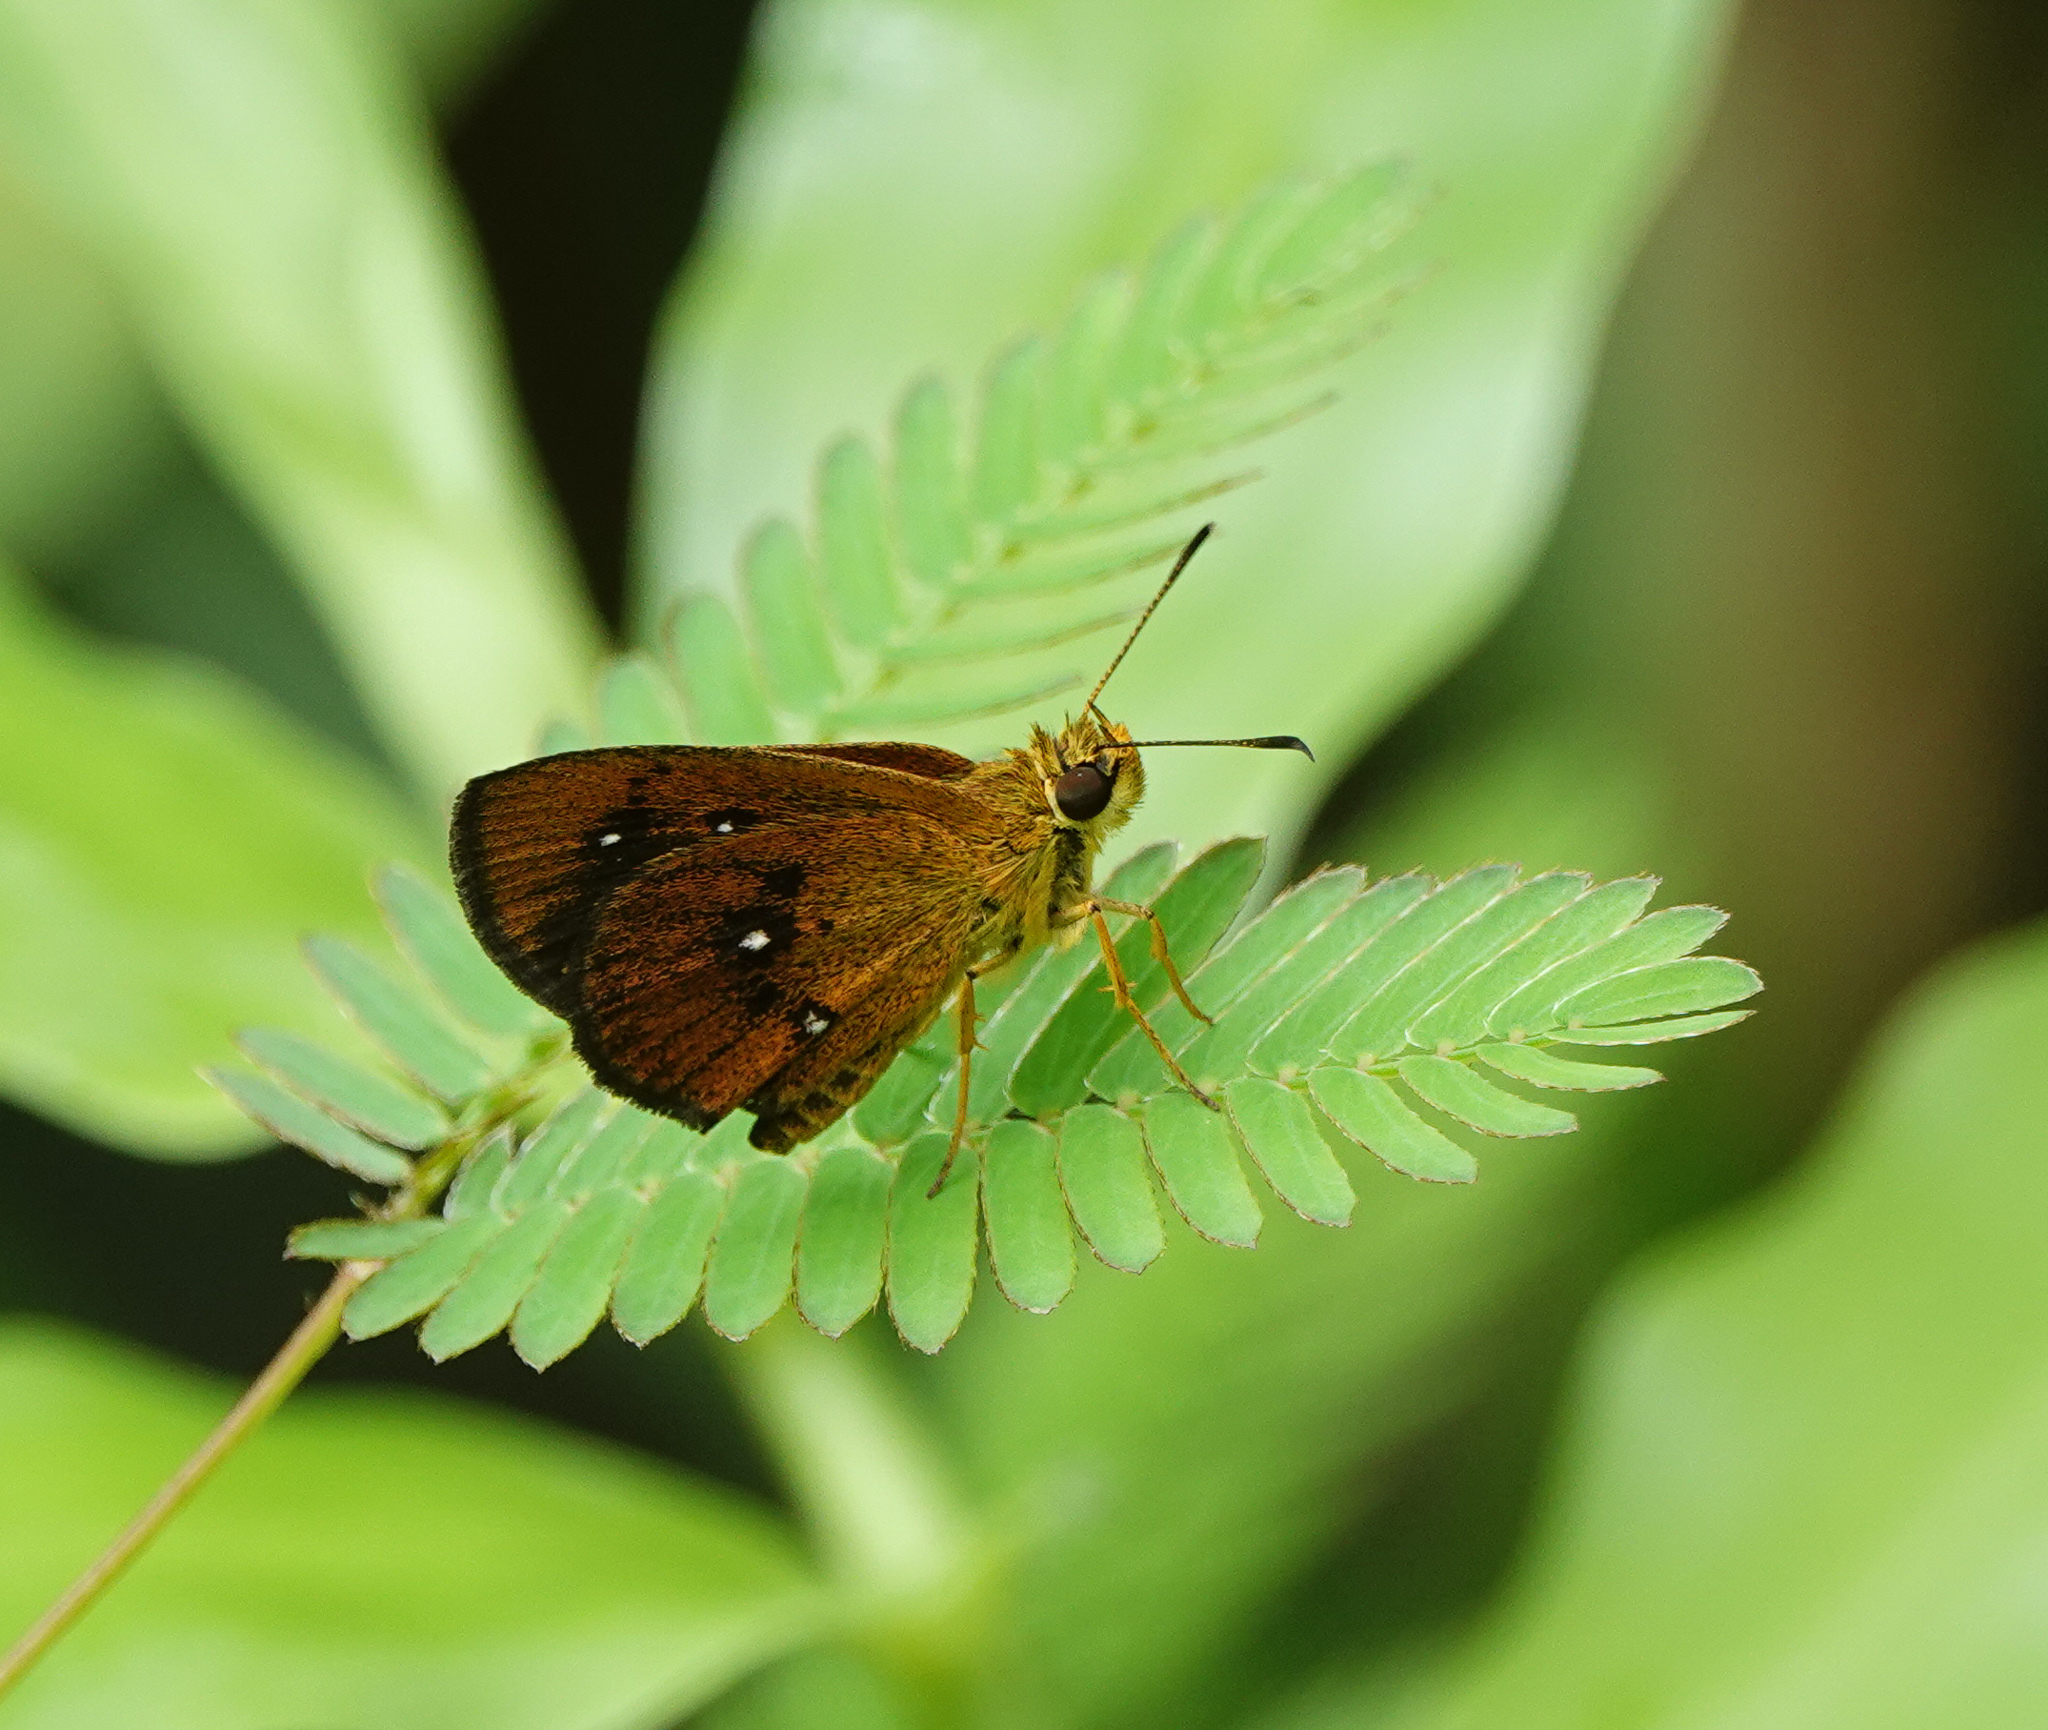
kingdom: Animalia
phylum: Arthropoda
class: Insecta
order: Lepidoptera
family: Hesperiidae
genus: Iambrix
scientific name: Iambrix salsala
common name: Chestnut bob
